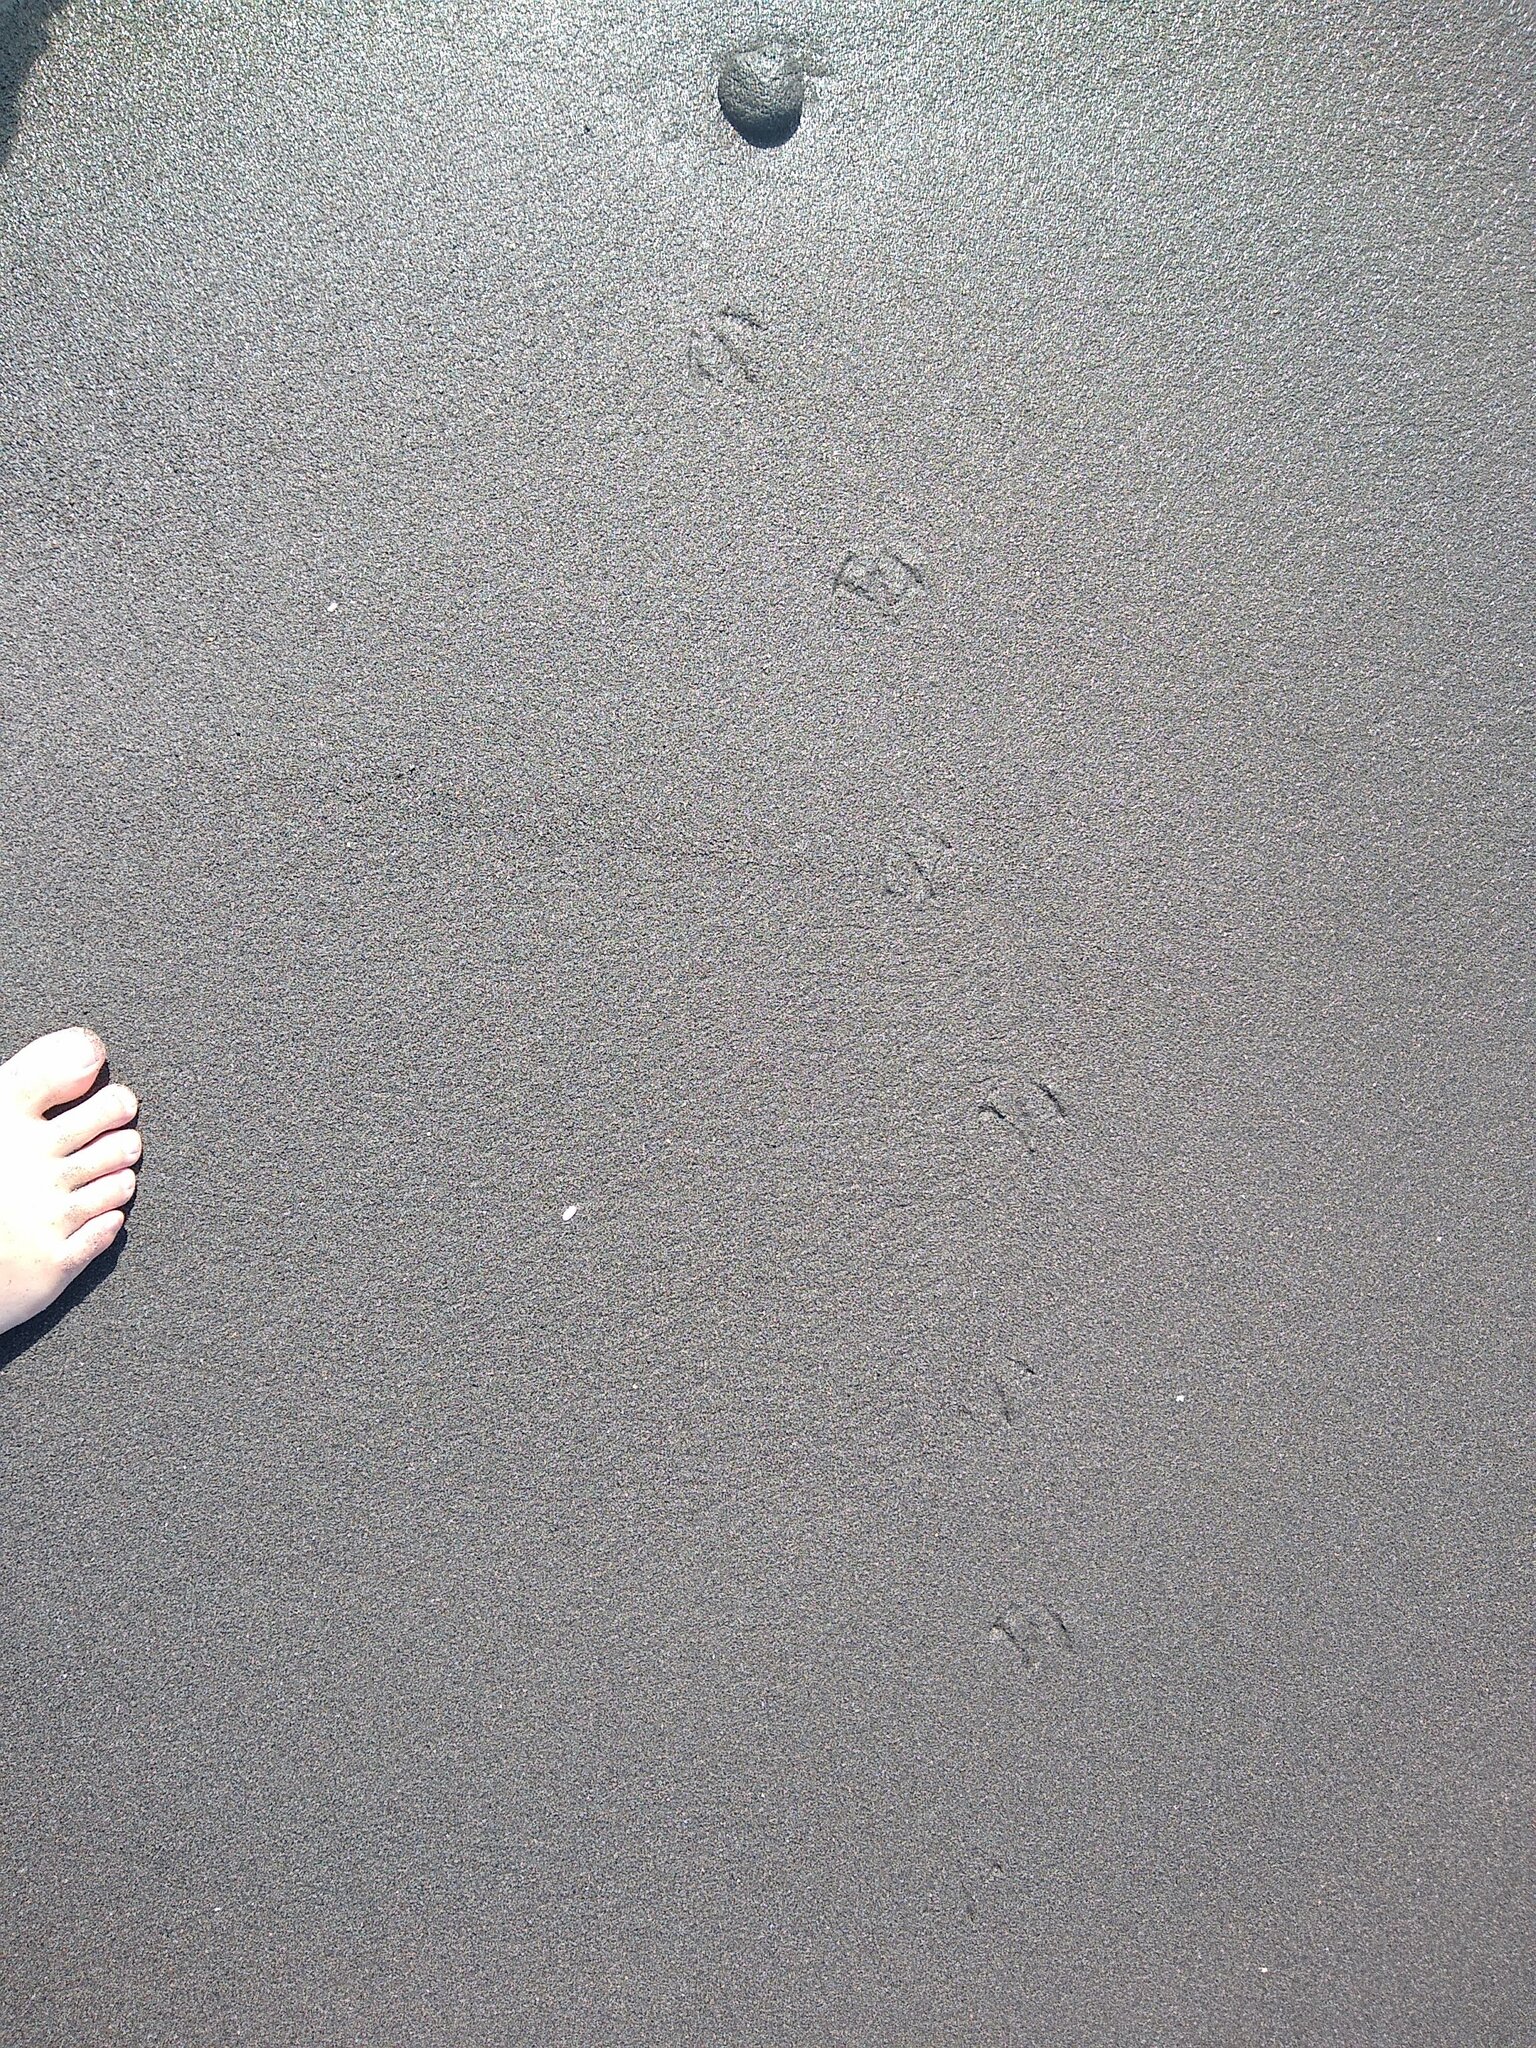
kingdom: Animalia
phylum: Chordata
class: Aves
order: Charadriiformes
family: Laridae
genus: Chroicocephalus
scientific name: Chroicocephalus novaehollandiae
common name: Silver gull
